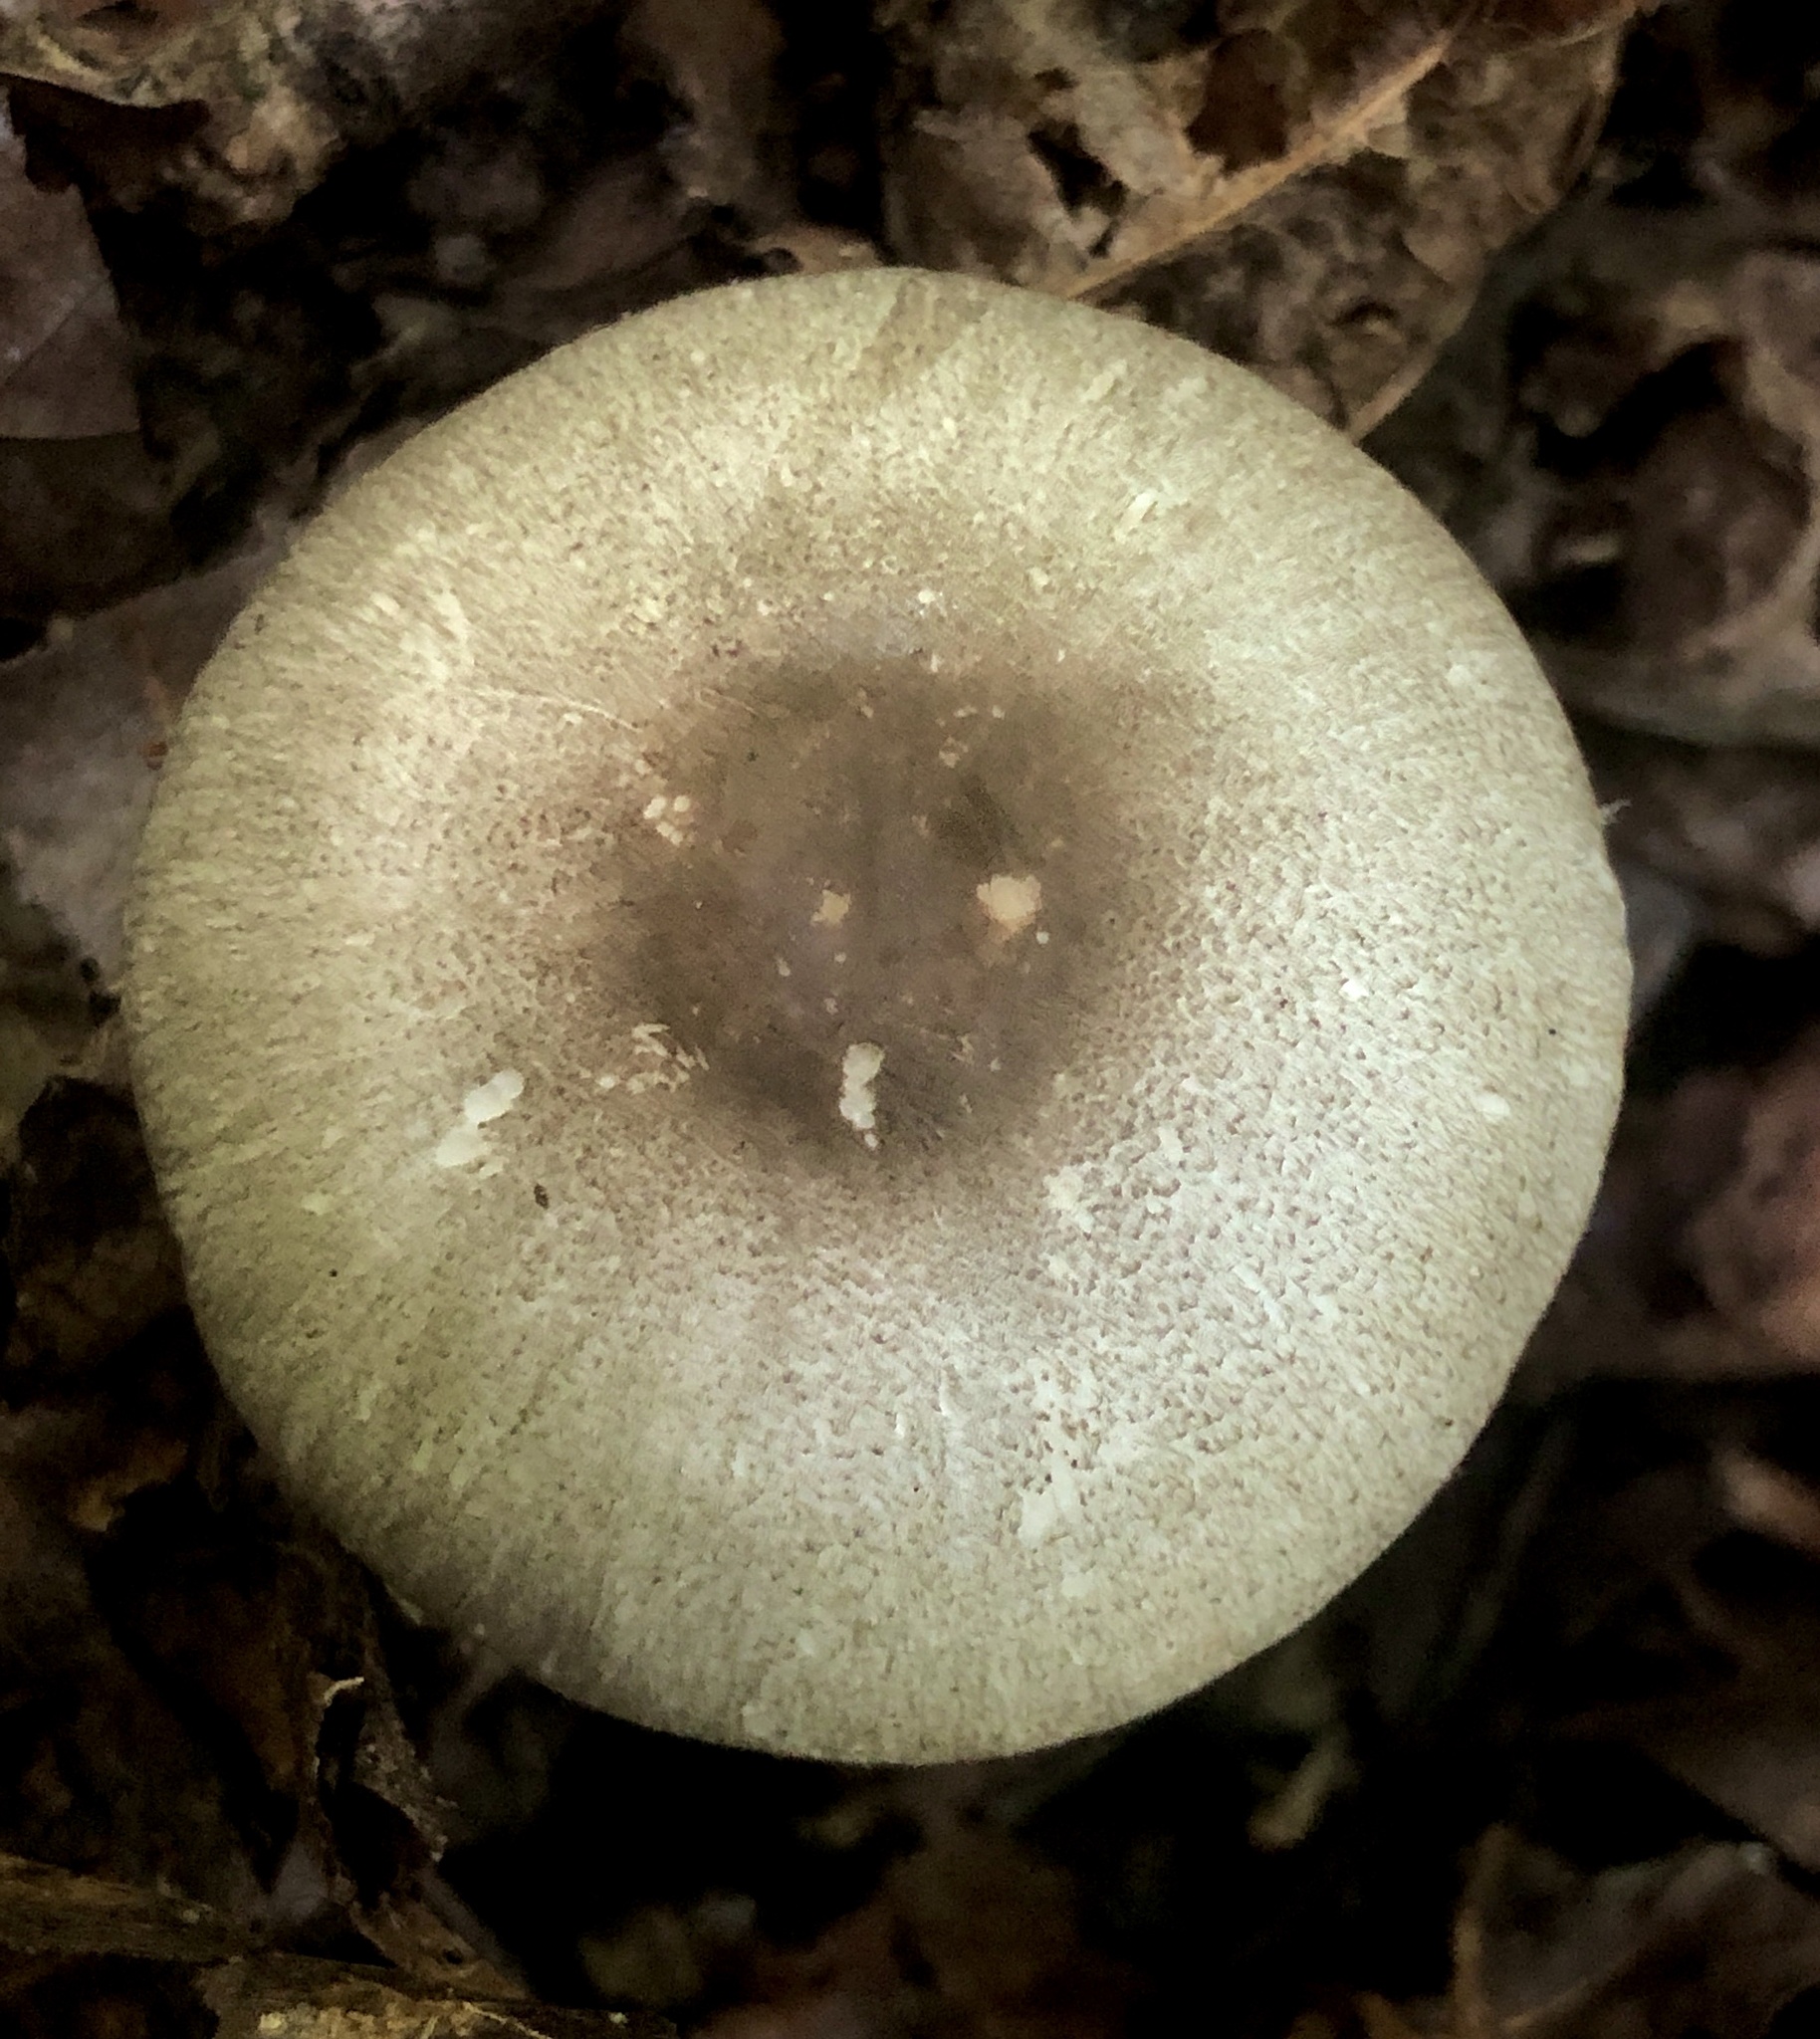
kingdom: Fungi
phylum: Basidiomycota
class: Agaricomycetes
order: Agaricales
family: Agaricaceae
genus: Agaricus
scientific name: Agaricus pocillator
